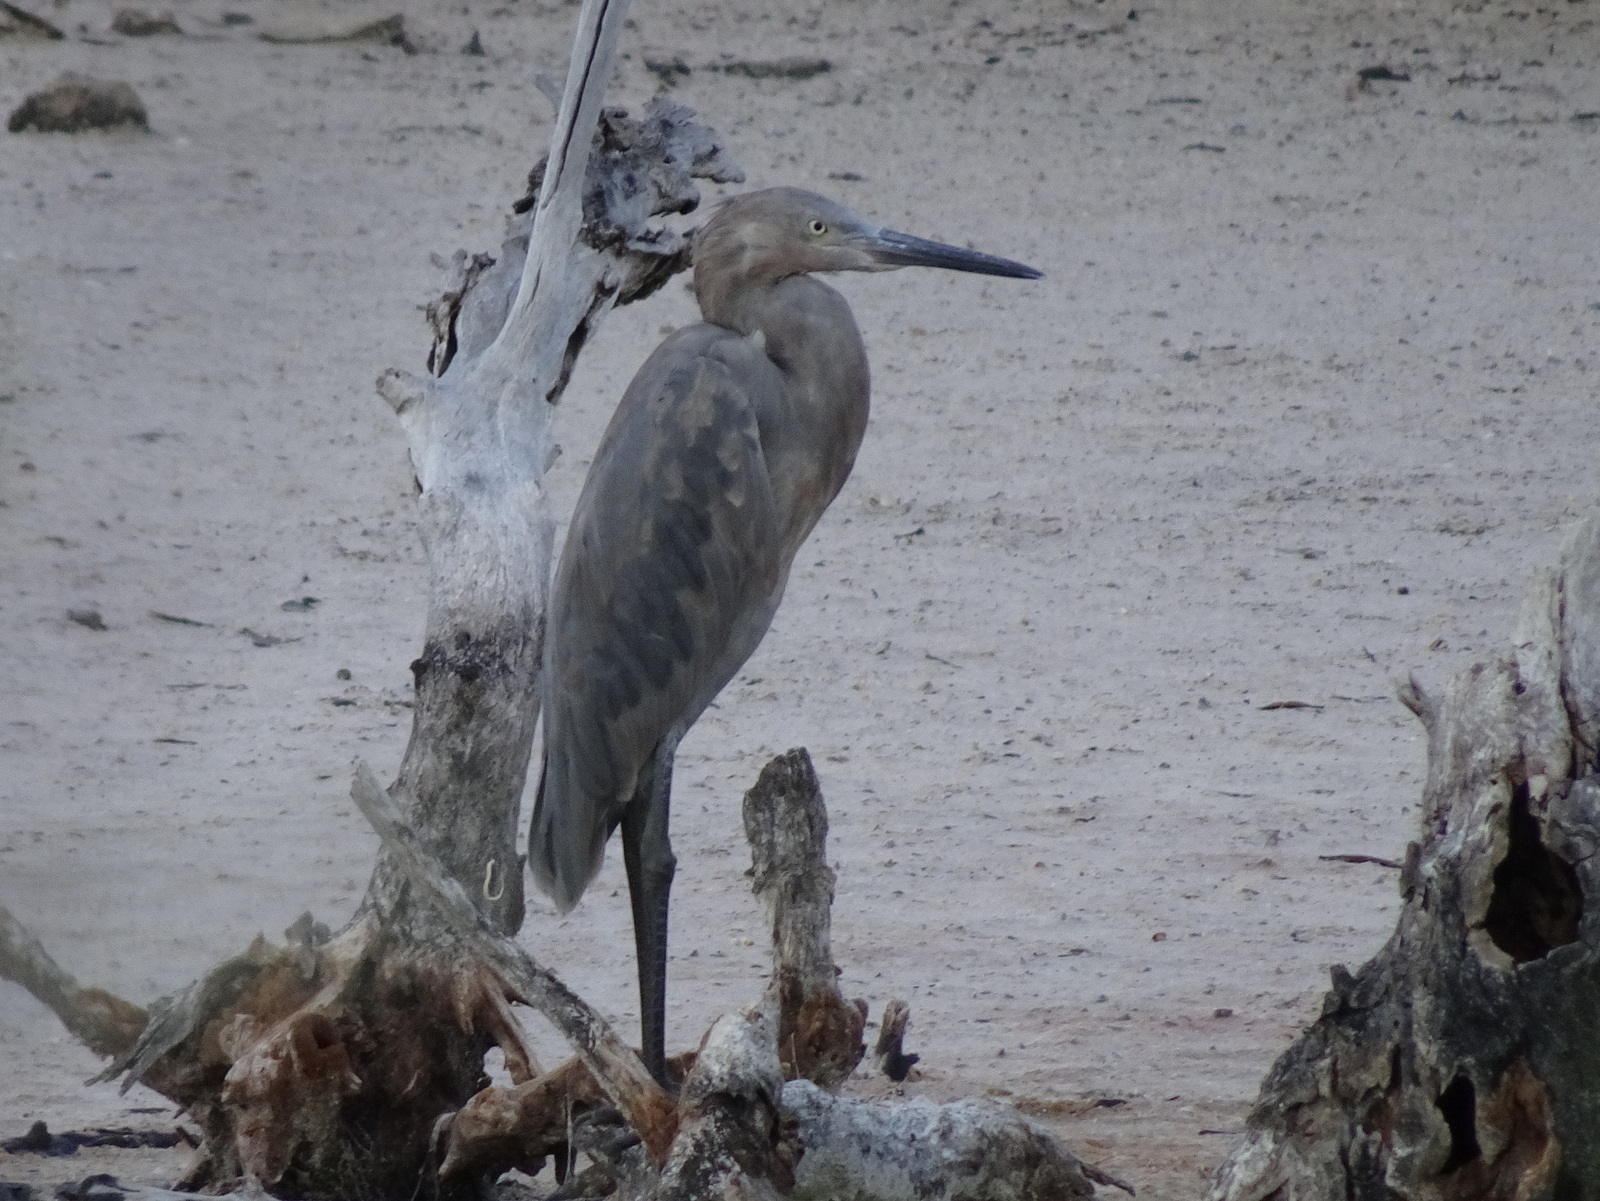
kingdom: Animalia
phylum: Chordata
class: Aves
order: Pelecaniformes
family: Ardeidae
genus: Egretta
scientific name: Egretta rufescens
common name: Reddish egret
